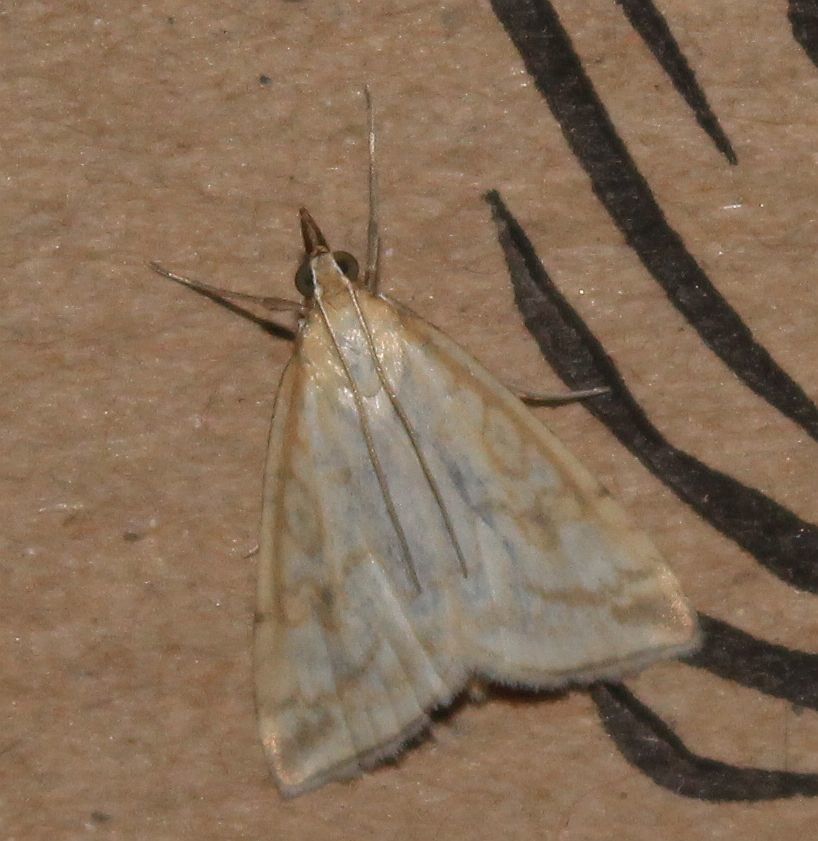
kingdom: Animalia
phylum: Arthropoda
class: Insecta
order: Lepidoptera
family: Crambidae
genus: Udea
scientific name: Udea lutealis
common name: Pale straw pearl
